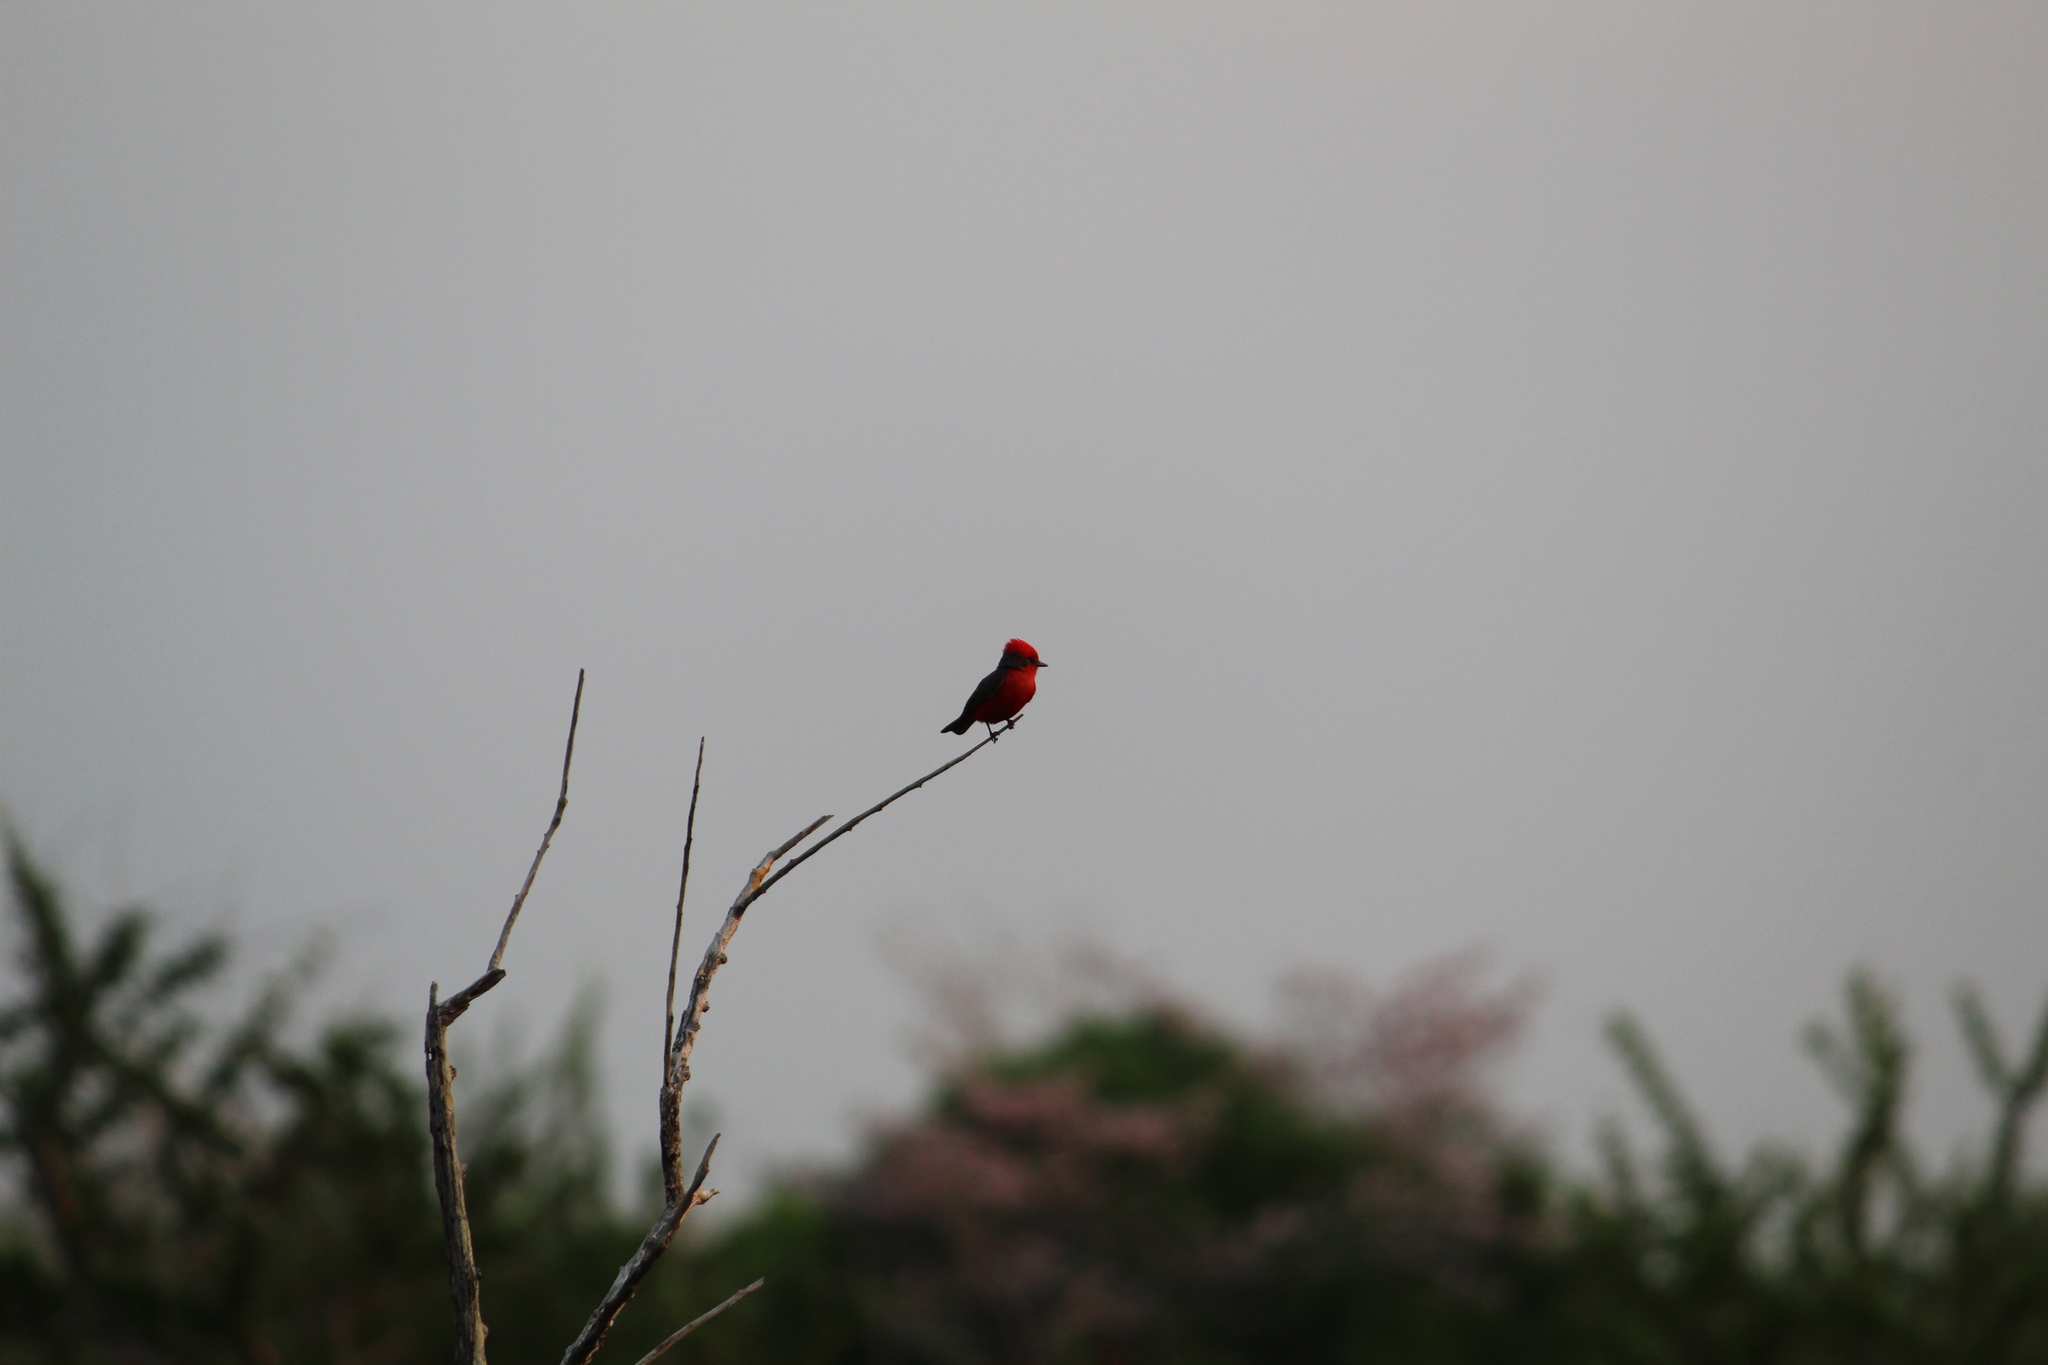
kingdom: Animalia
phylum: Chordata
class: Aves
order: Passeriformes
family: Tyrannidae
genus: Pyrocephalus
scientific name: Pyrocephalus rubinus
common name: Vermilion flycatcher
